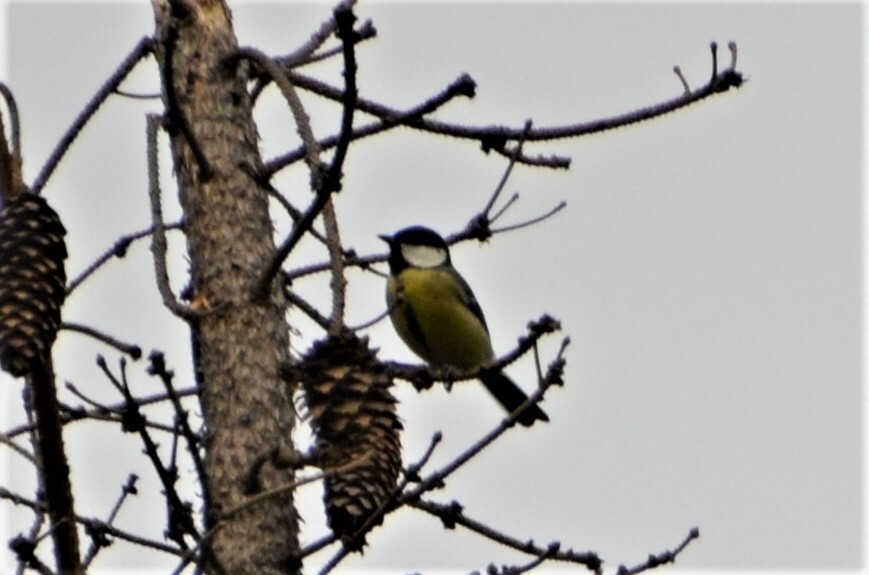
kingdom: Animalia
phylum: Chordata
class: Aves
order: Passeriformes
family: Paridae
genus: Parus
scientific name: Parus major
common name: Great tit
